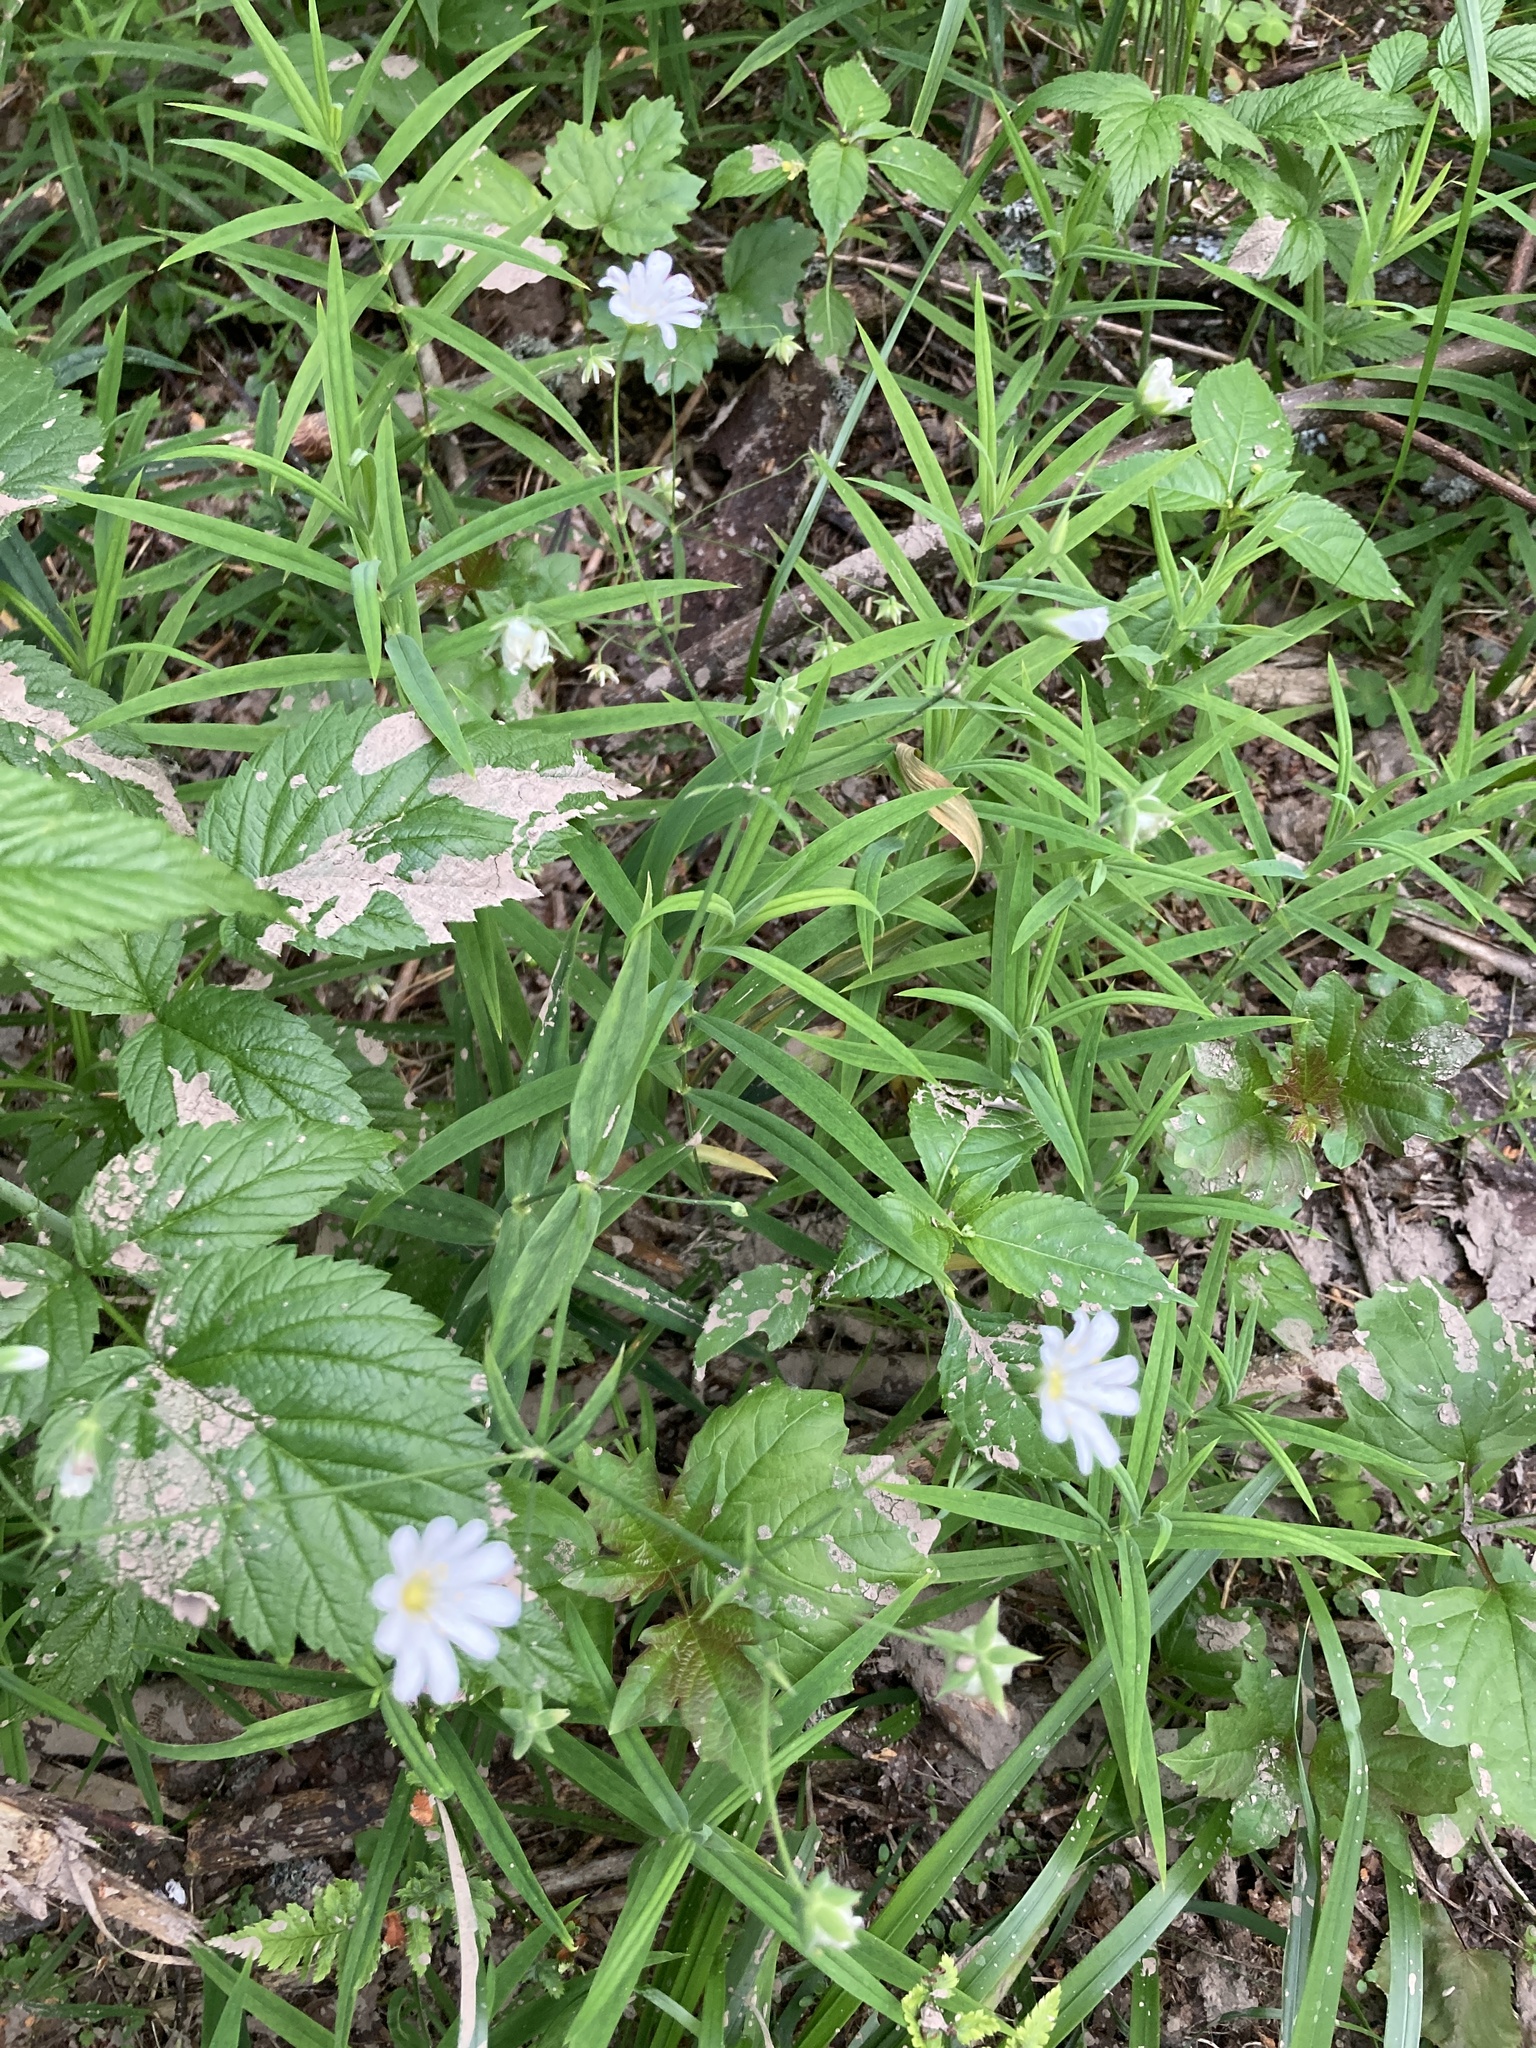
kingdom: Plantae
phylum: Tracheophyta
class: Magnoliopsida
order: Caryophyllales
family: Caryophyllaceae
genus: Rabelera
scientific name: Rabelera holostea
